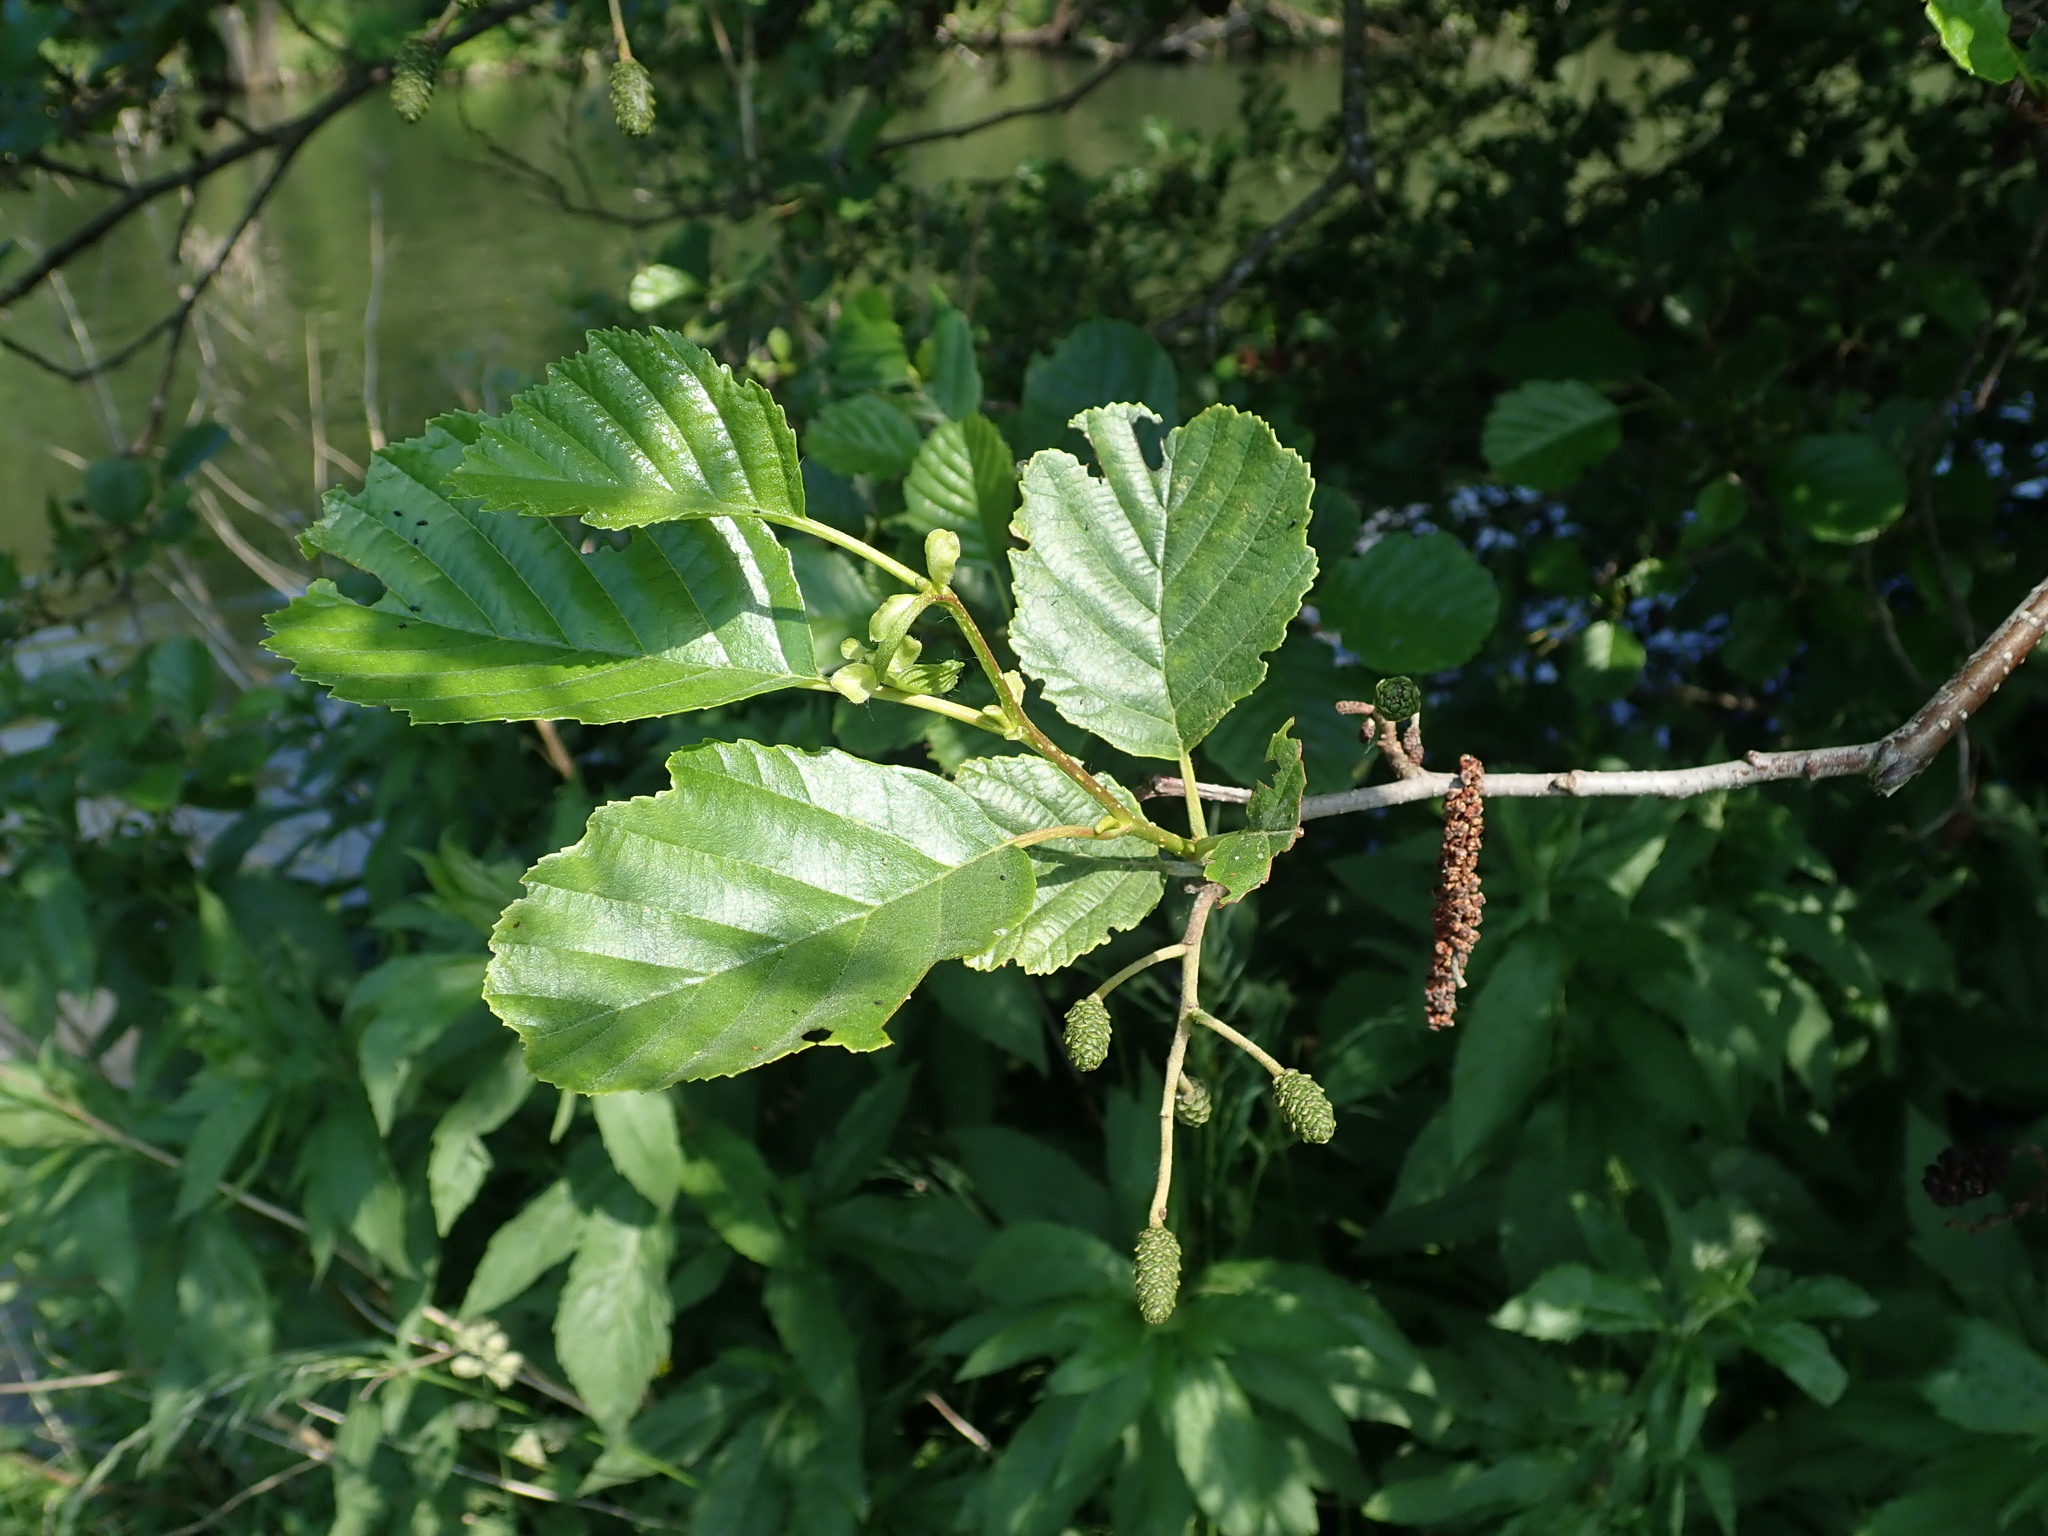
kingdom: Plantae
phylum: Tracheophyta
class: Magnoliopsida
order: Fagales
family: Betulaceae
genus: Alnus
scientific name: Alnus glutinosa
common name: Black alder
